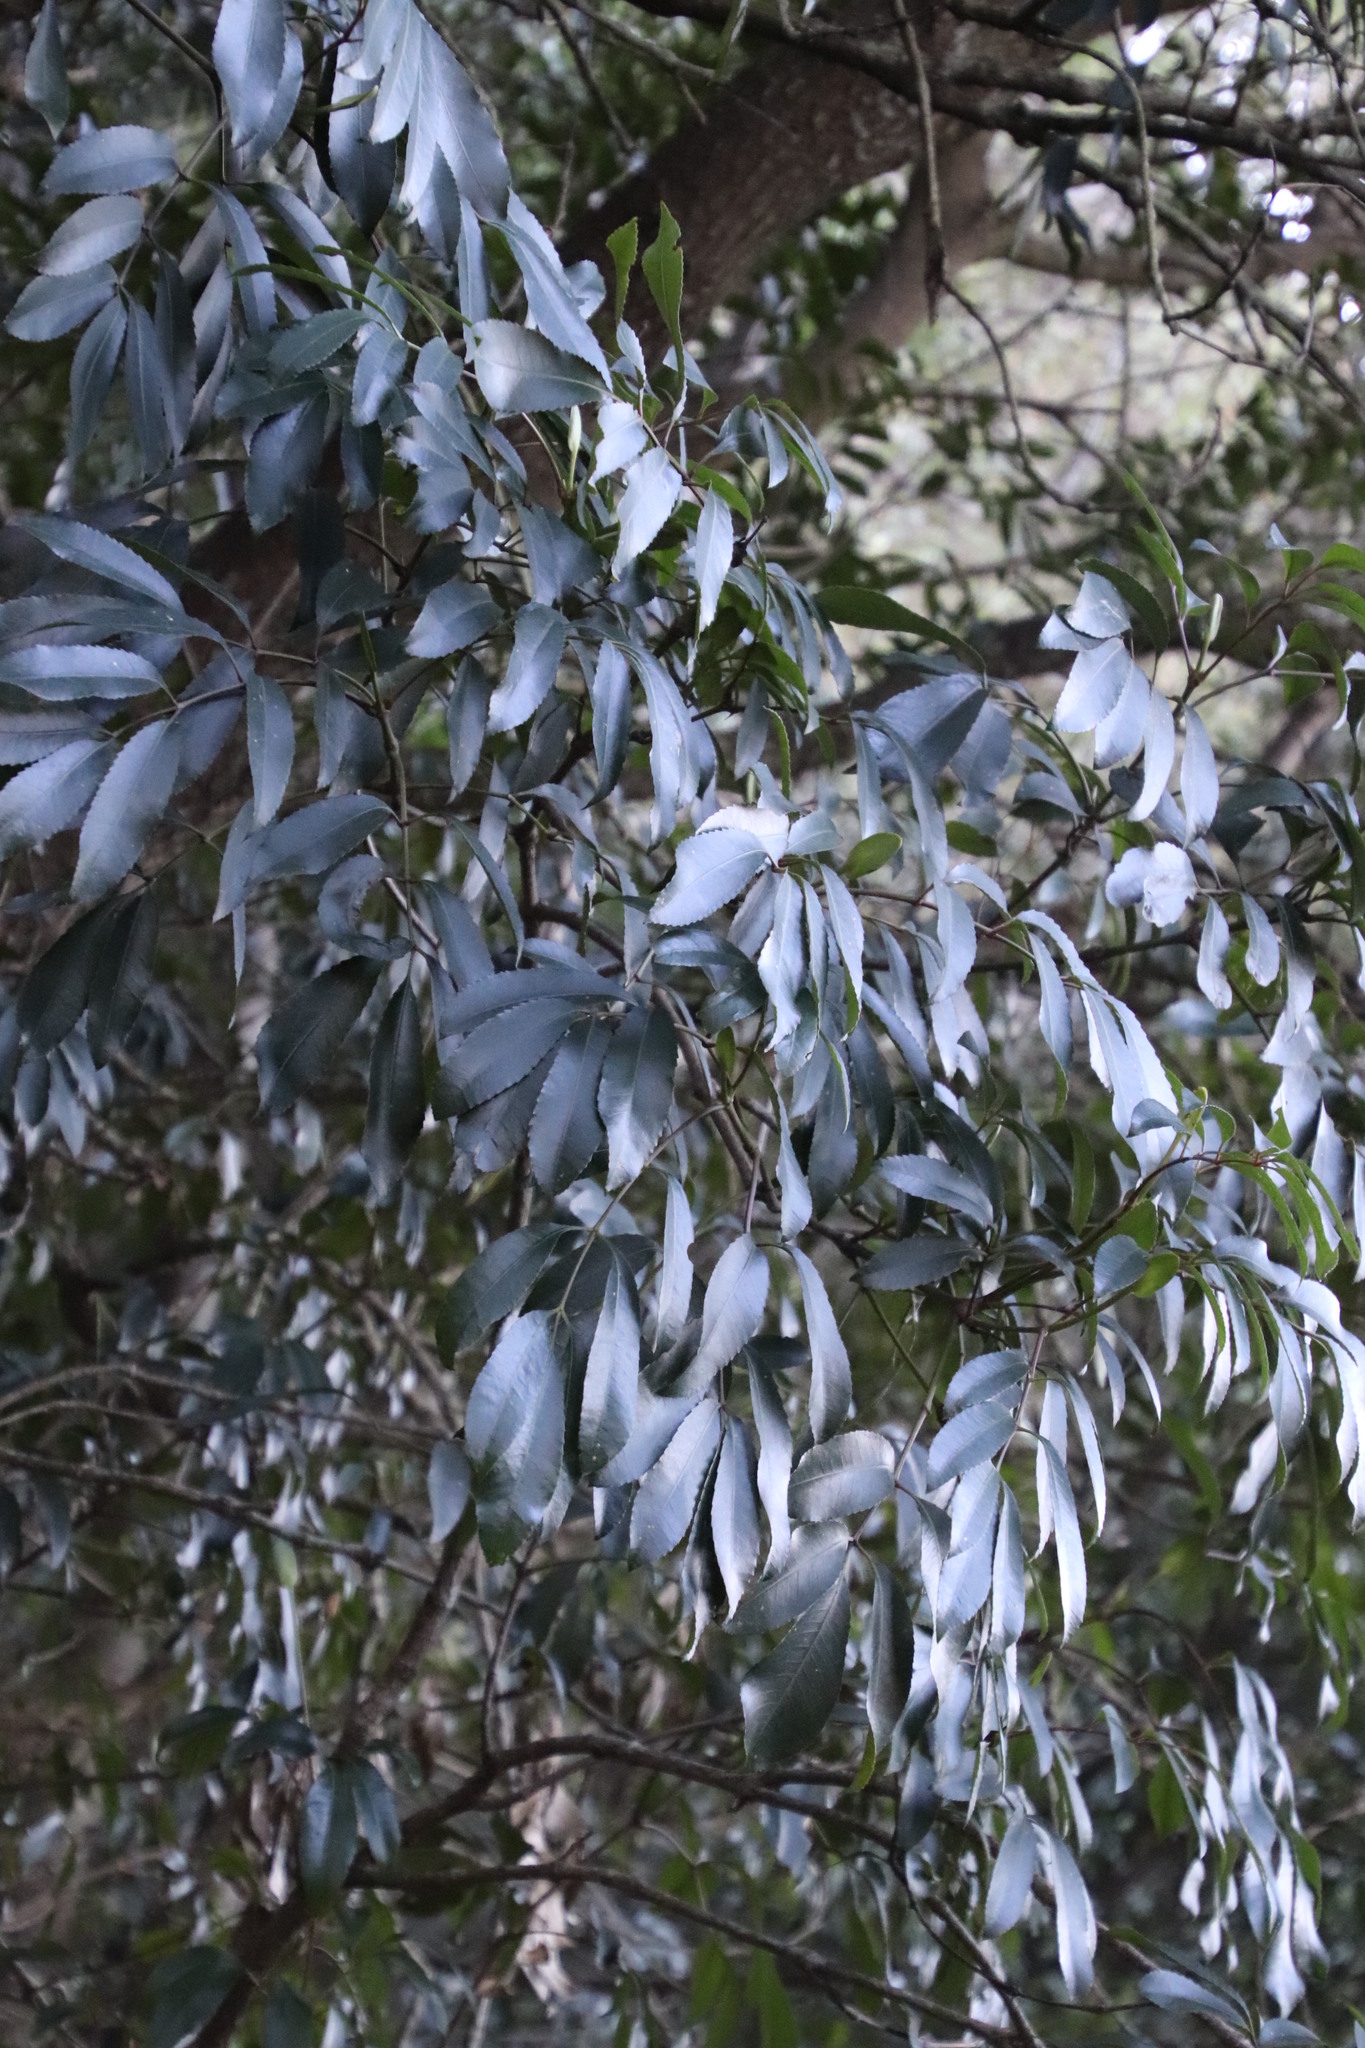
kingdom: Plantae
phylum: Tracheophyta
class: Magnoliopsida
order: Oxalidales
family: Cunoniaceae
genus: Cunonia
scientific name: Cunonia capensis
